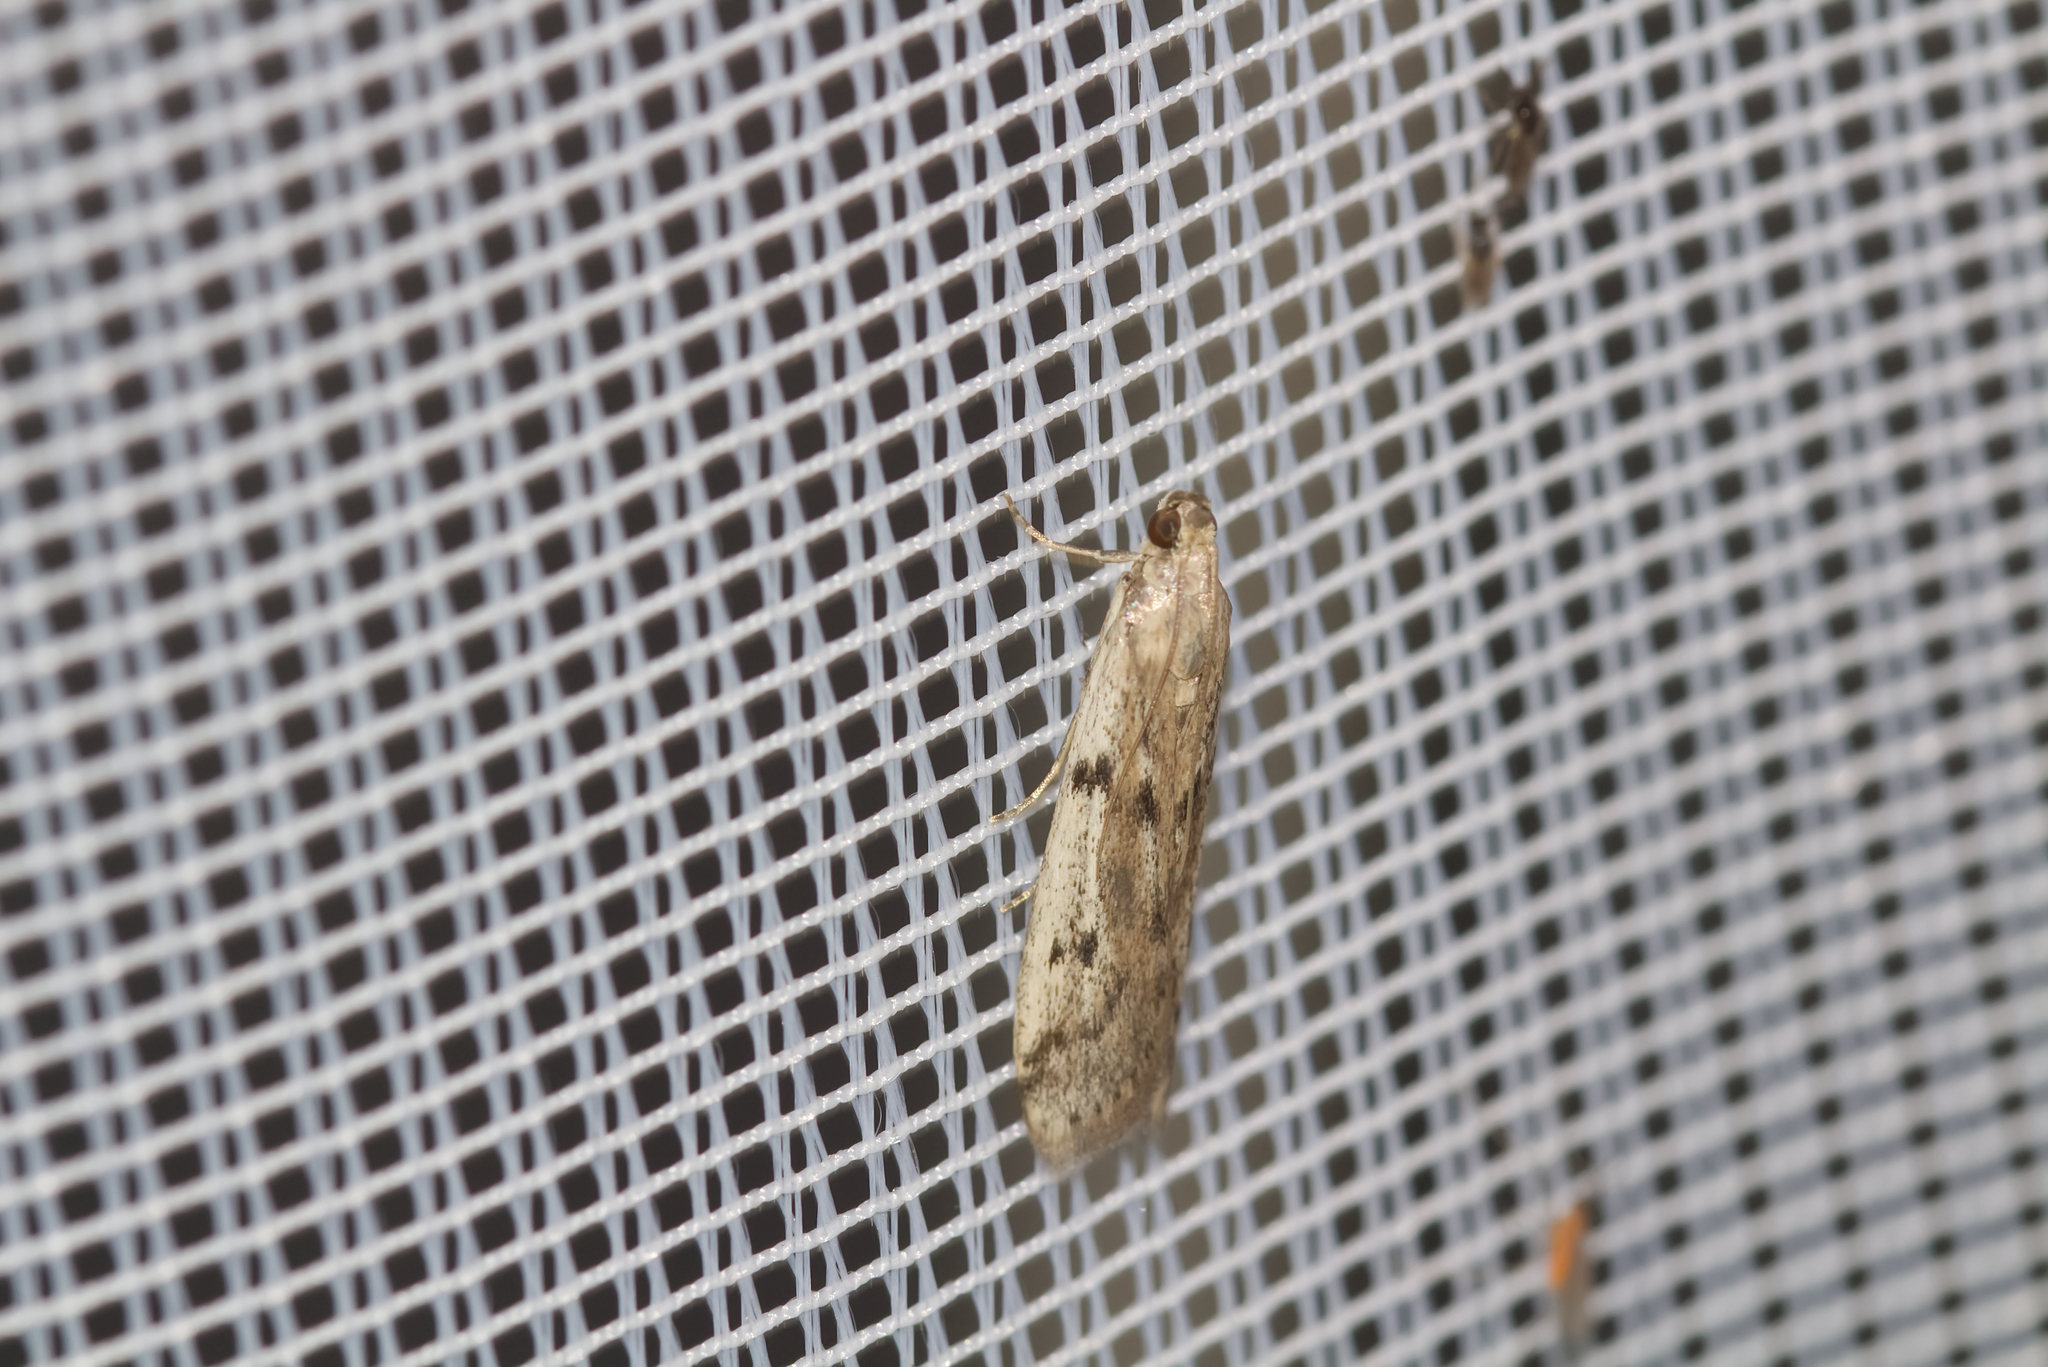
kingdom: Animalia
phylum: Arthropoda
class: Insecta
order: Lepidoptera
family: Pyralidae
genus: Phycitodes
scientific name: Phycitodes binaevella
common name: Ermine knot-horn
